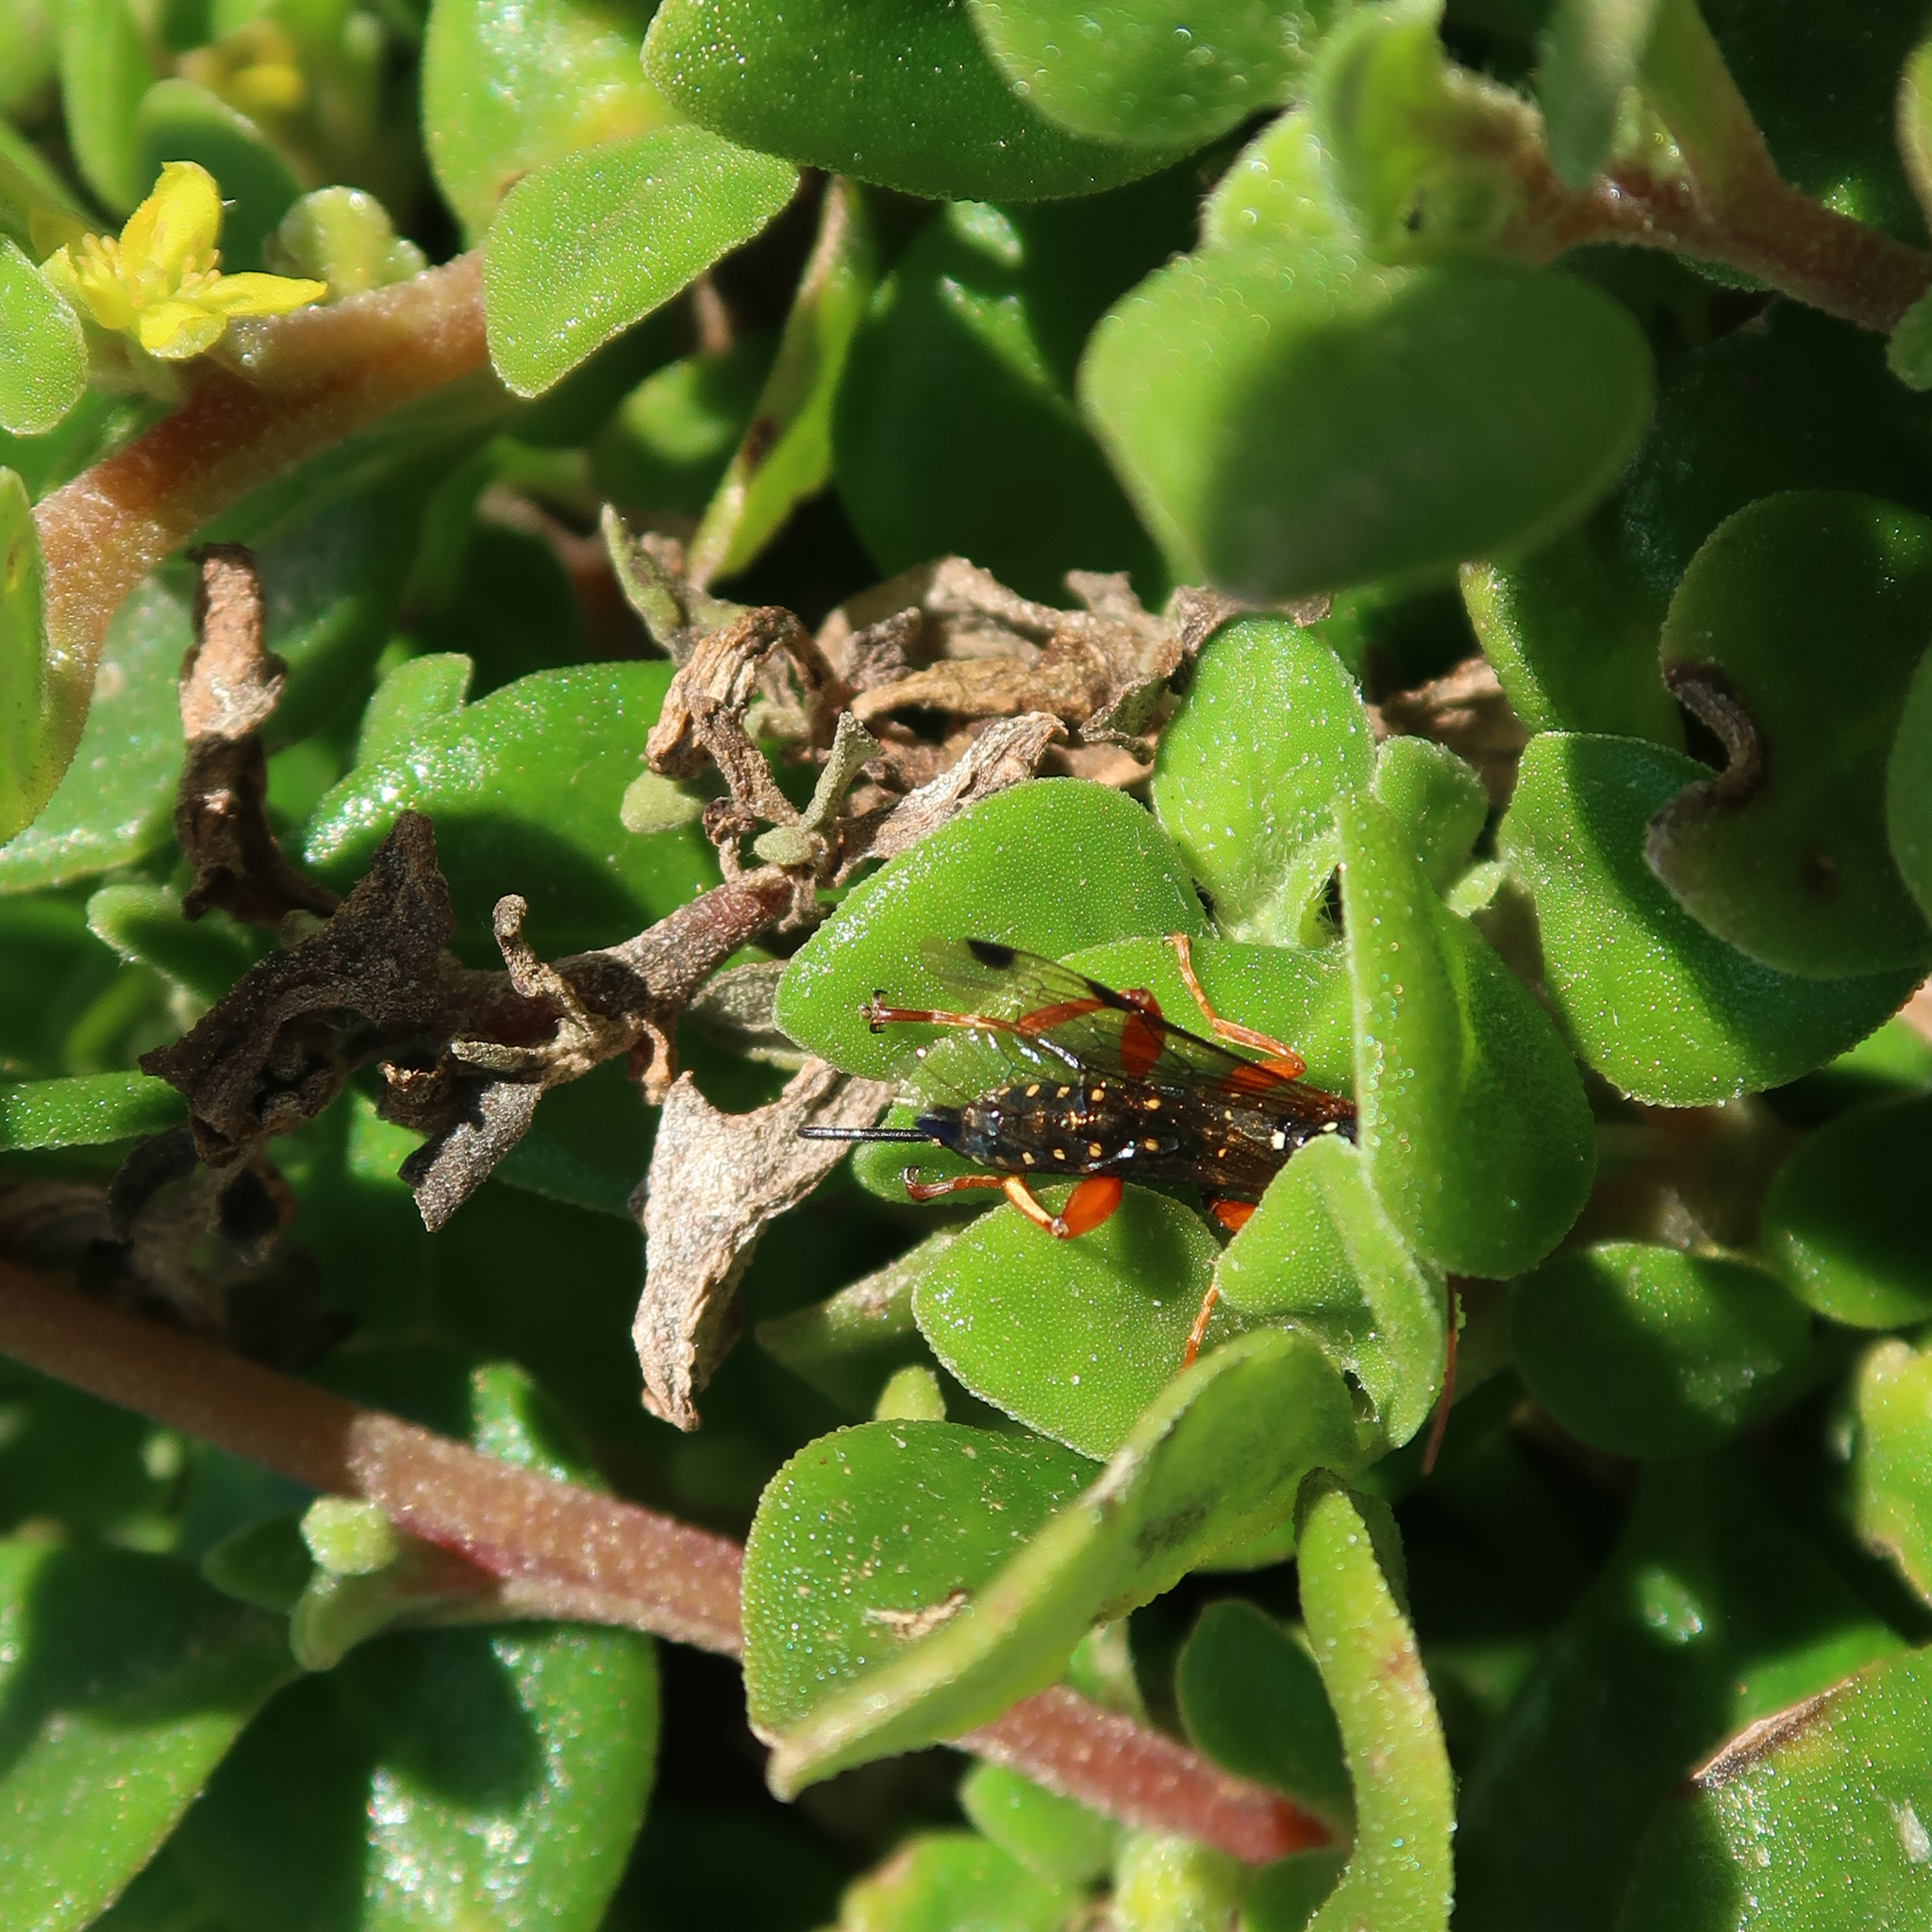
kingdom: Animalia
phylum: Arthropoda
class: Insecta
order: Hymenoptera
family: Ichneumonidae
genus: Echthromorpha
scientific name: Echthromorpha intricatoria
